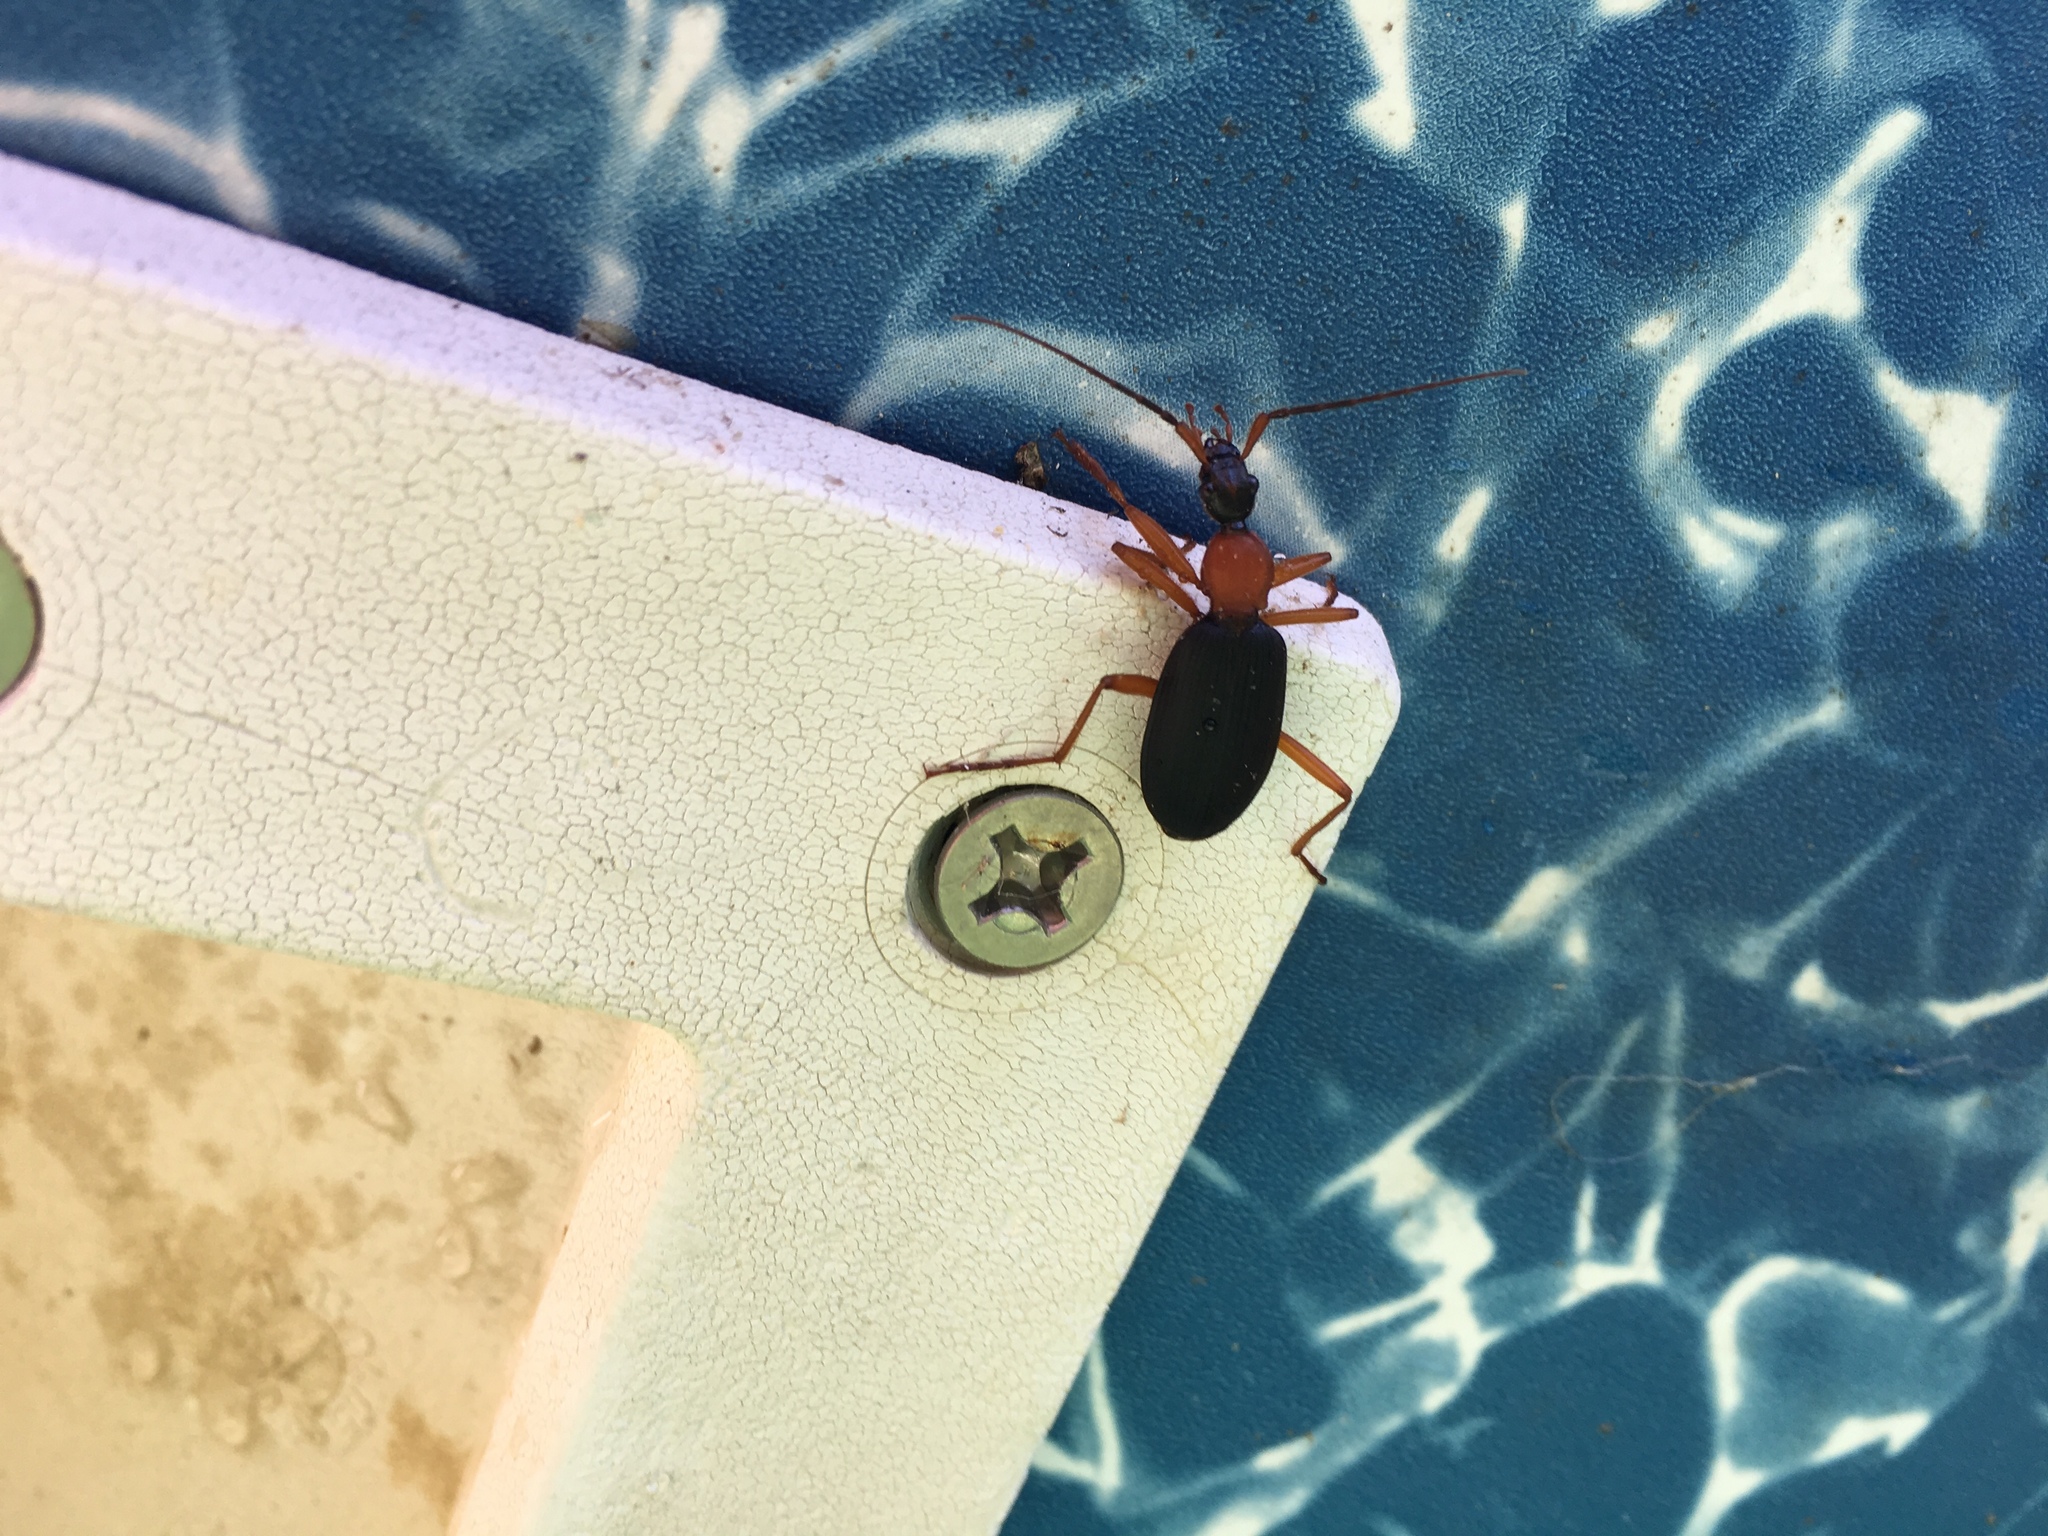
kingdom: Animalia
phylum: Arthropoda
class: Insecta
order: Coleoptera
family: Carabidae
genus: Galerita
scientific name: Galerita bicolor
